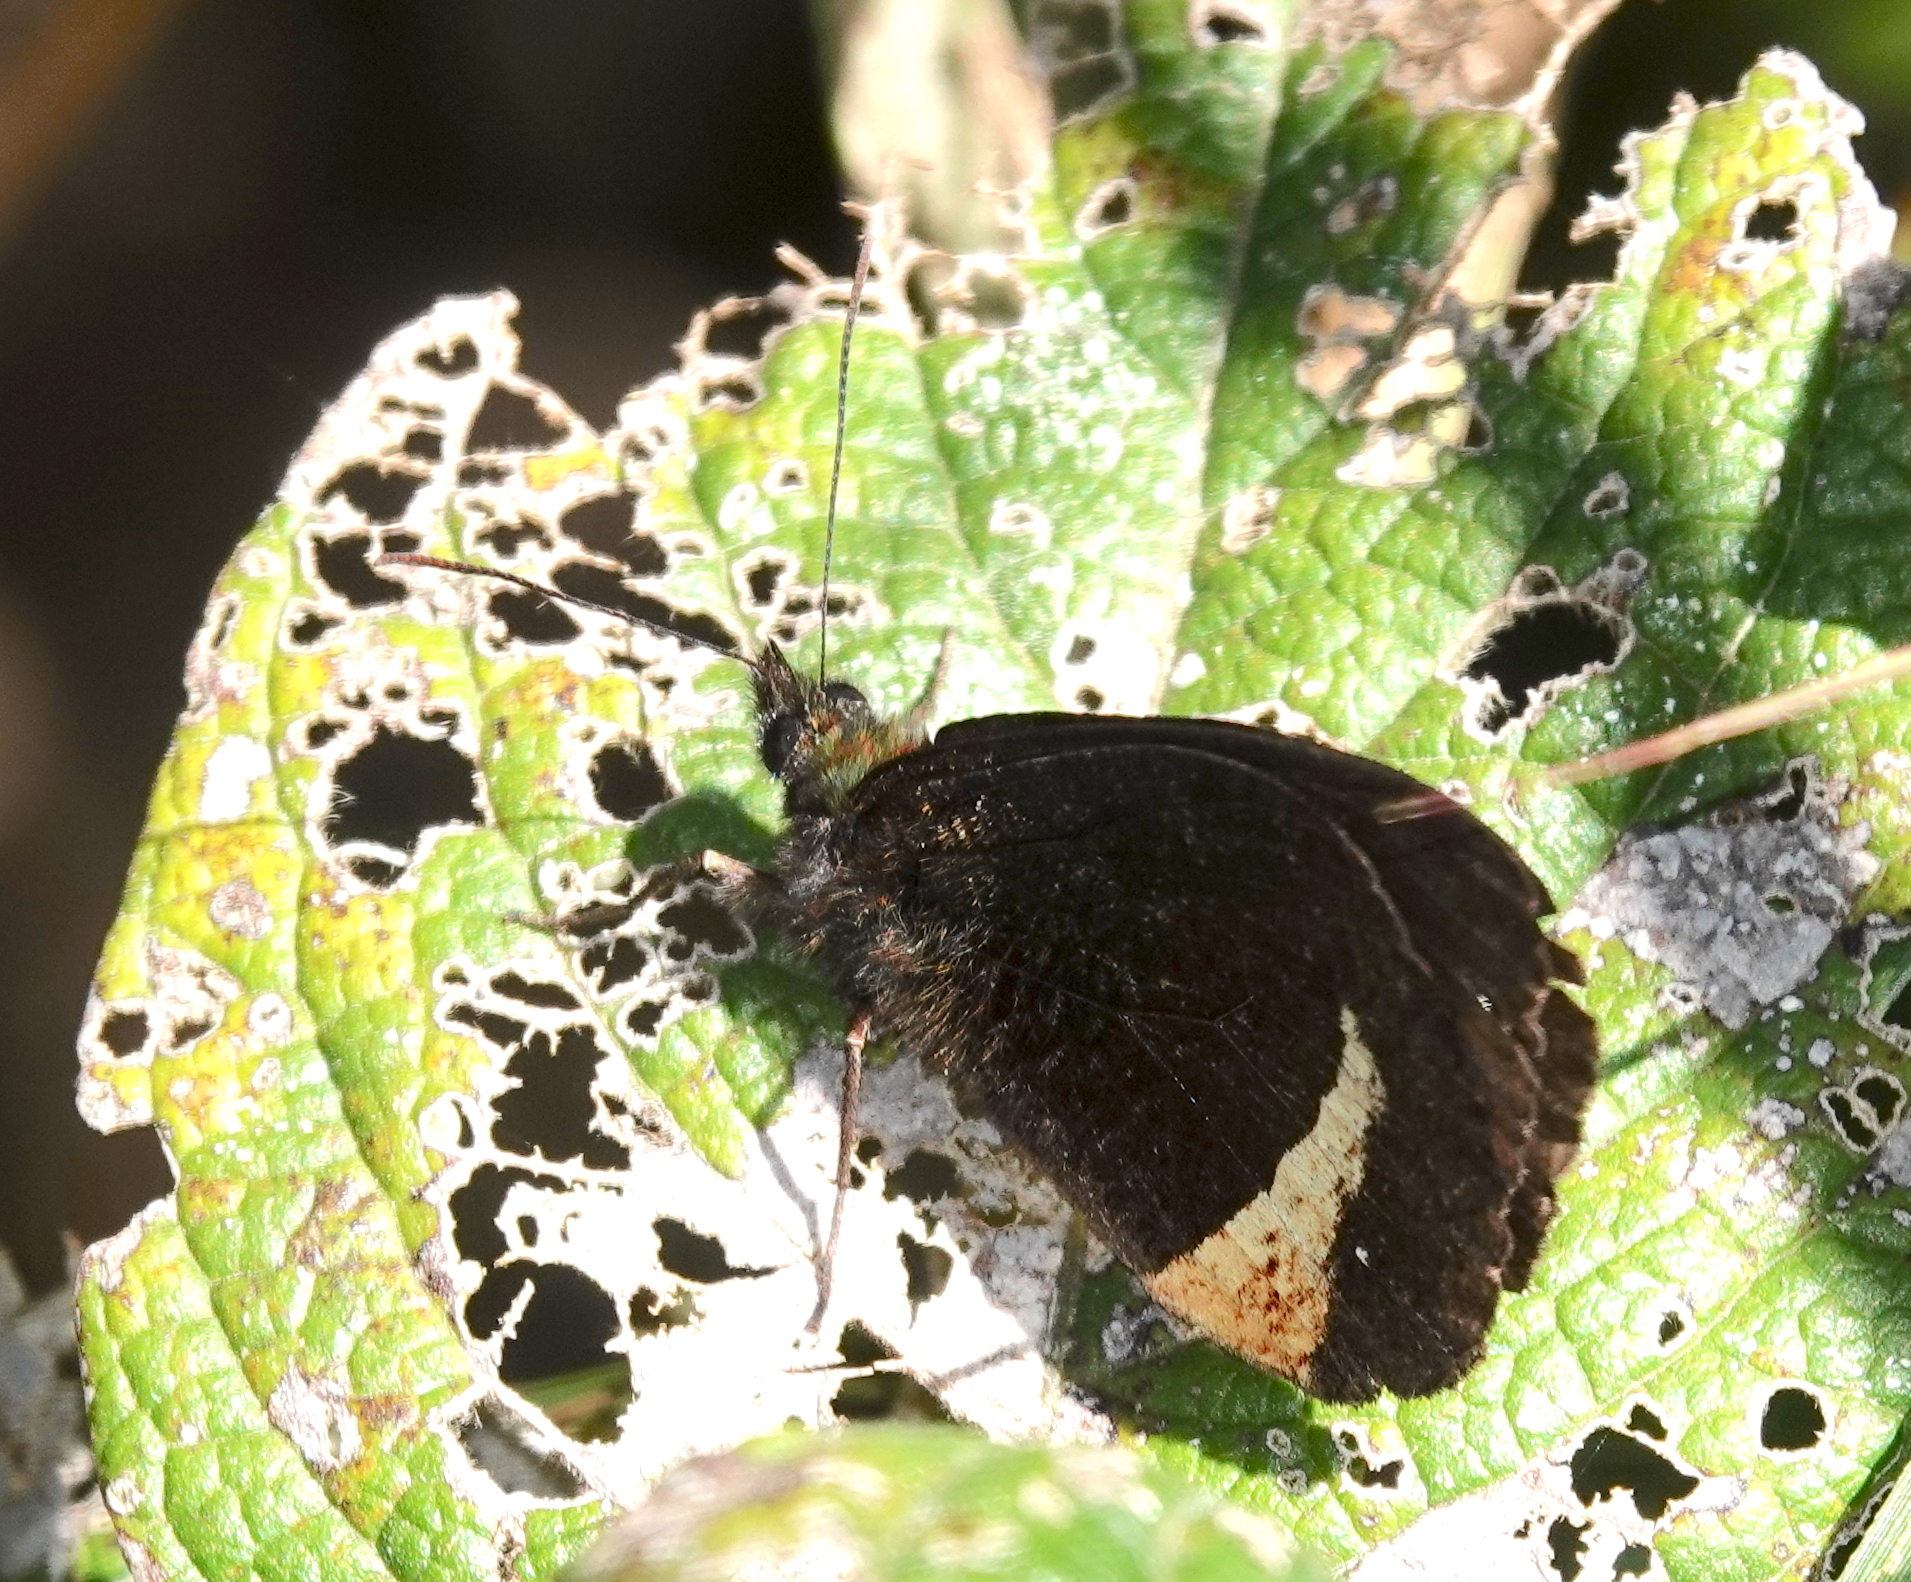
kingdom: Animalia
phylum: Arthropoda
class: Insecta
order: Lepidoptera
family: Nymphalidae
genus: Pedaliodes
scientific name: Pedaliodes tyrrheus
